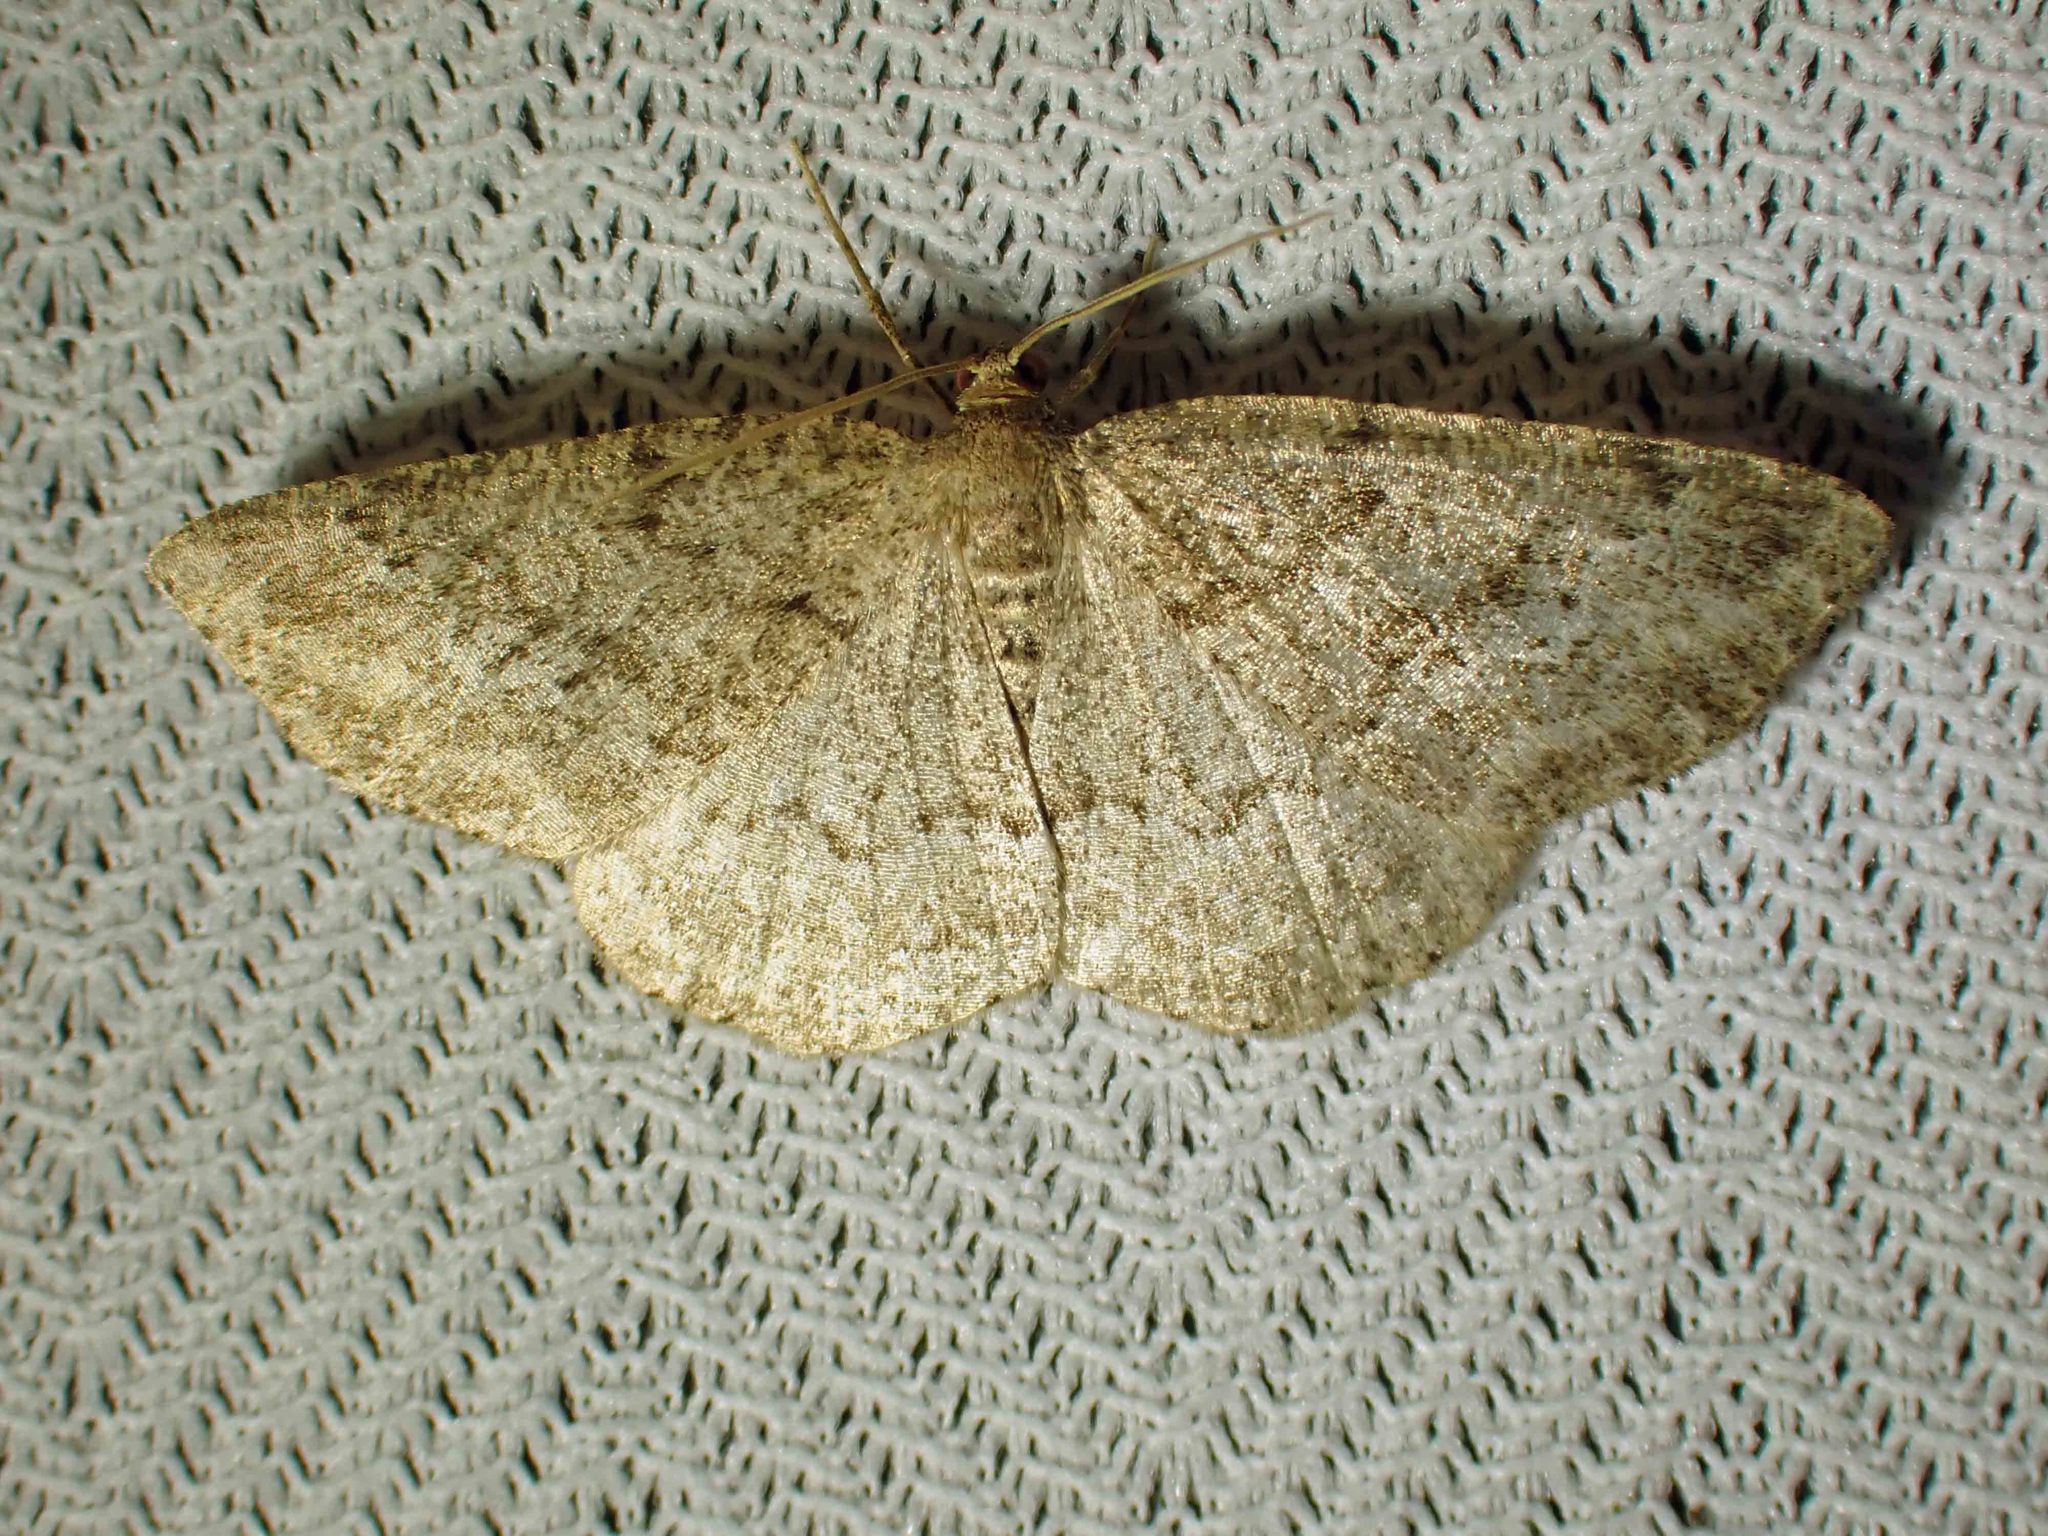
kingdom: Animalia
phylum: Arthropoda
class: Insecta
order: Lepidoptera
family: Geometridae
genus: Homochlodes
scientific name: Homochlodes fritillaria
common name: Pale homochlodes
